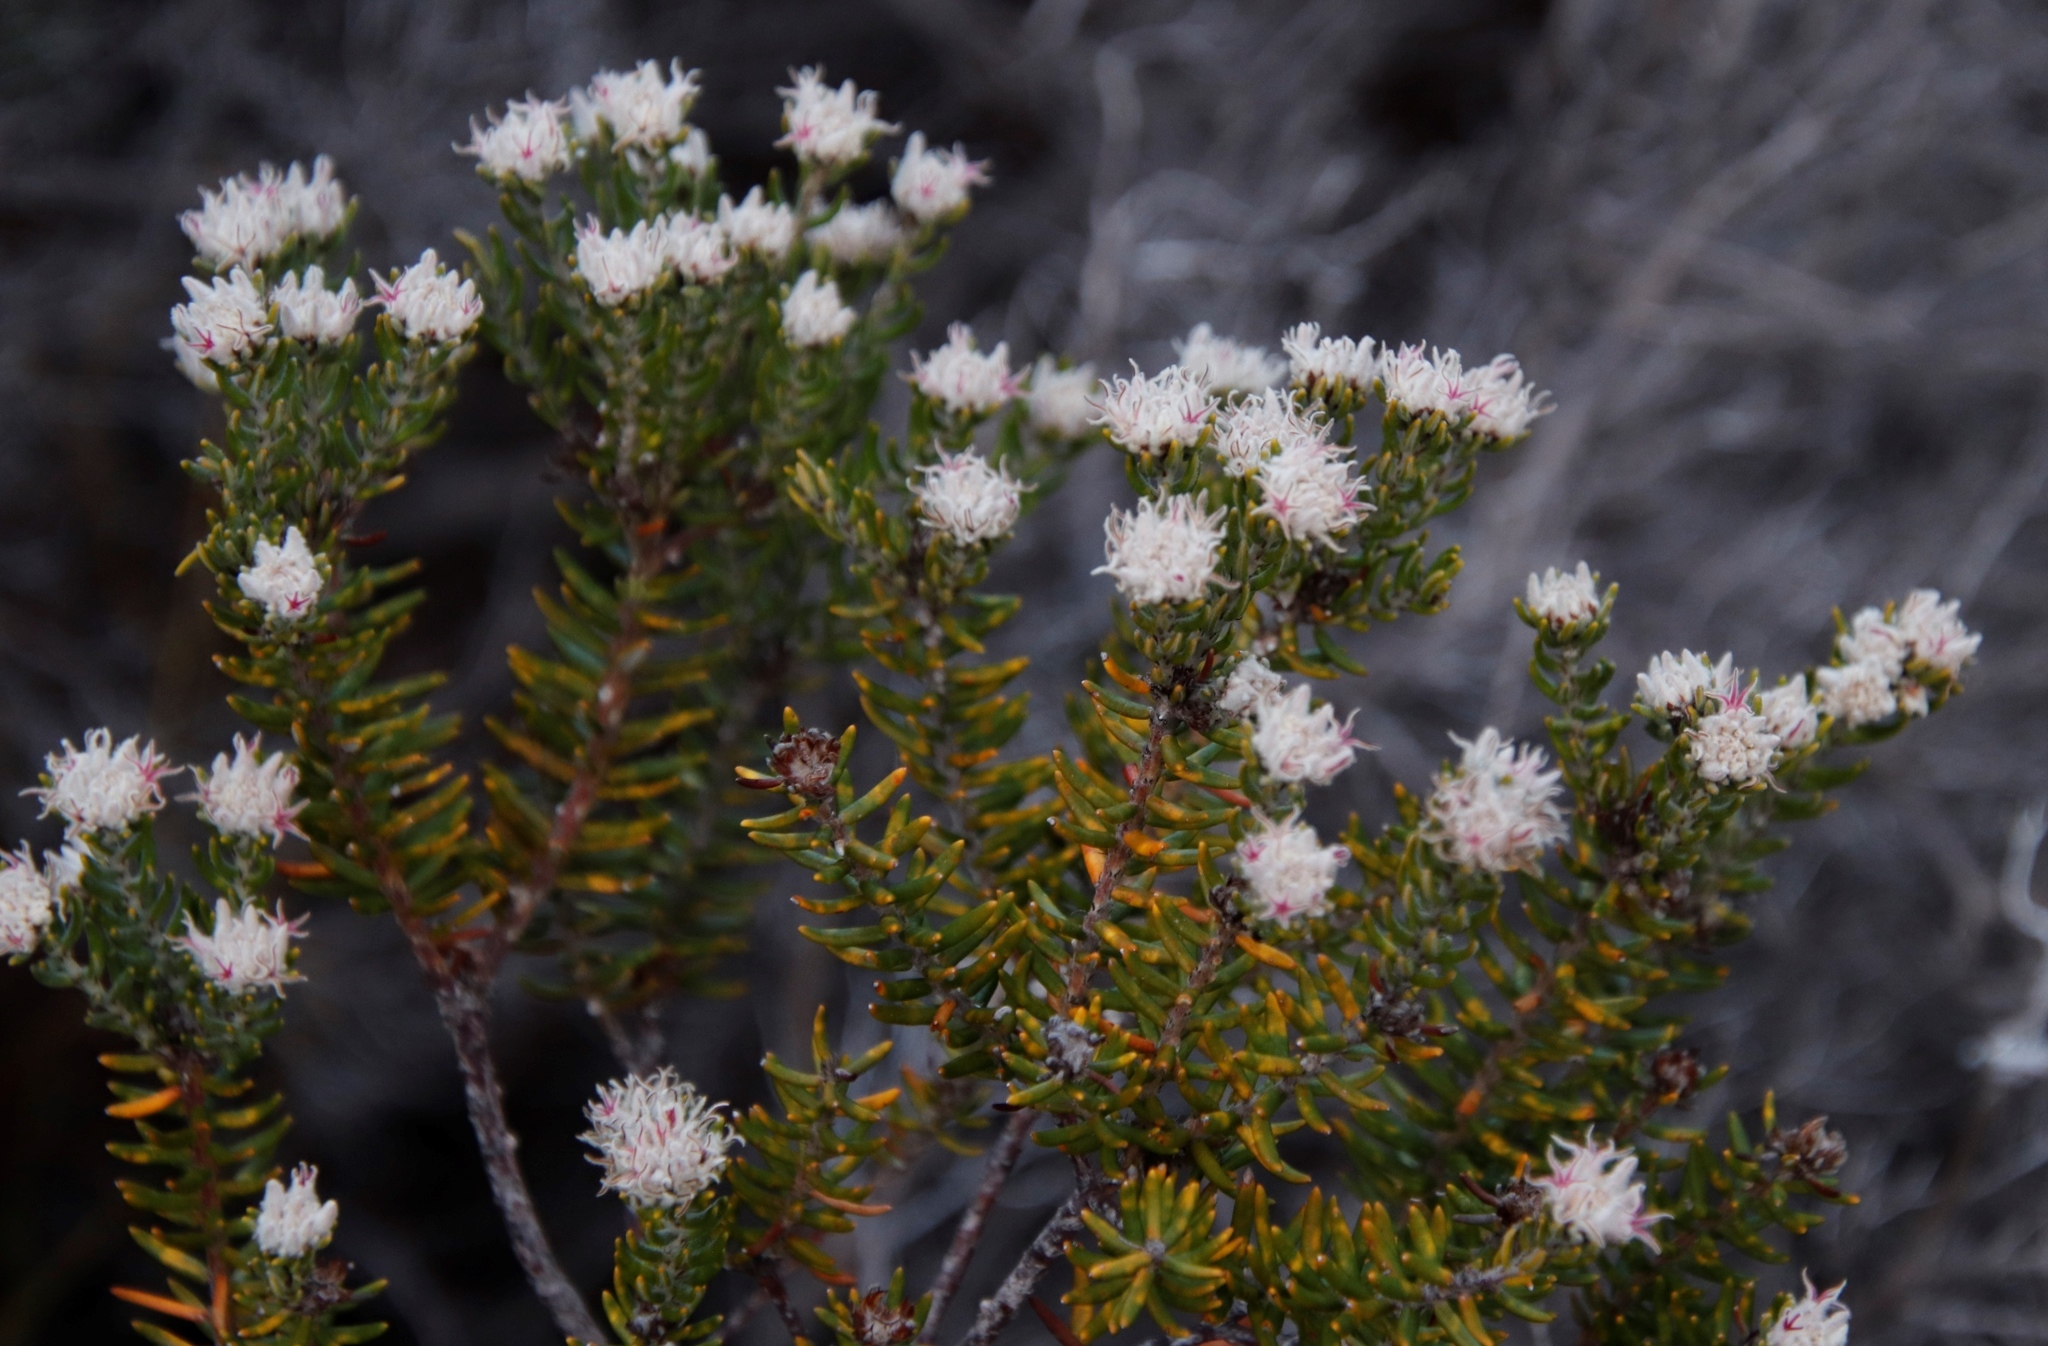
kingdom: Plantae
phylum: Tracheophyta
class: Magnoliopsida
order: Rosales
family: Rhamnaceae
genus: Trichocephalus
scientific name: Trichocephalus stipularis
